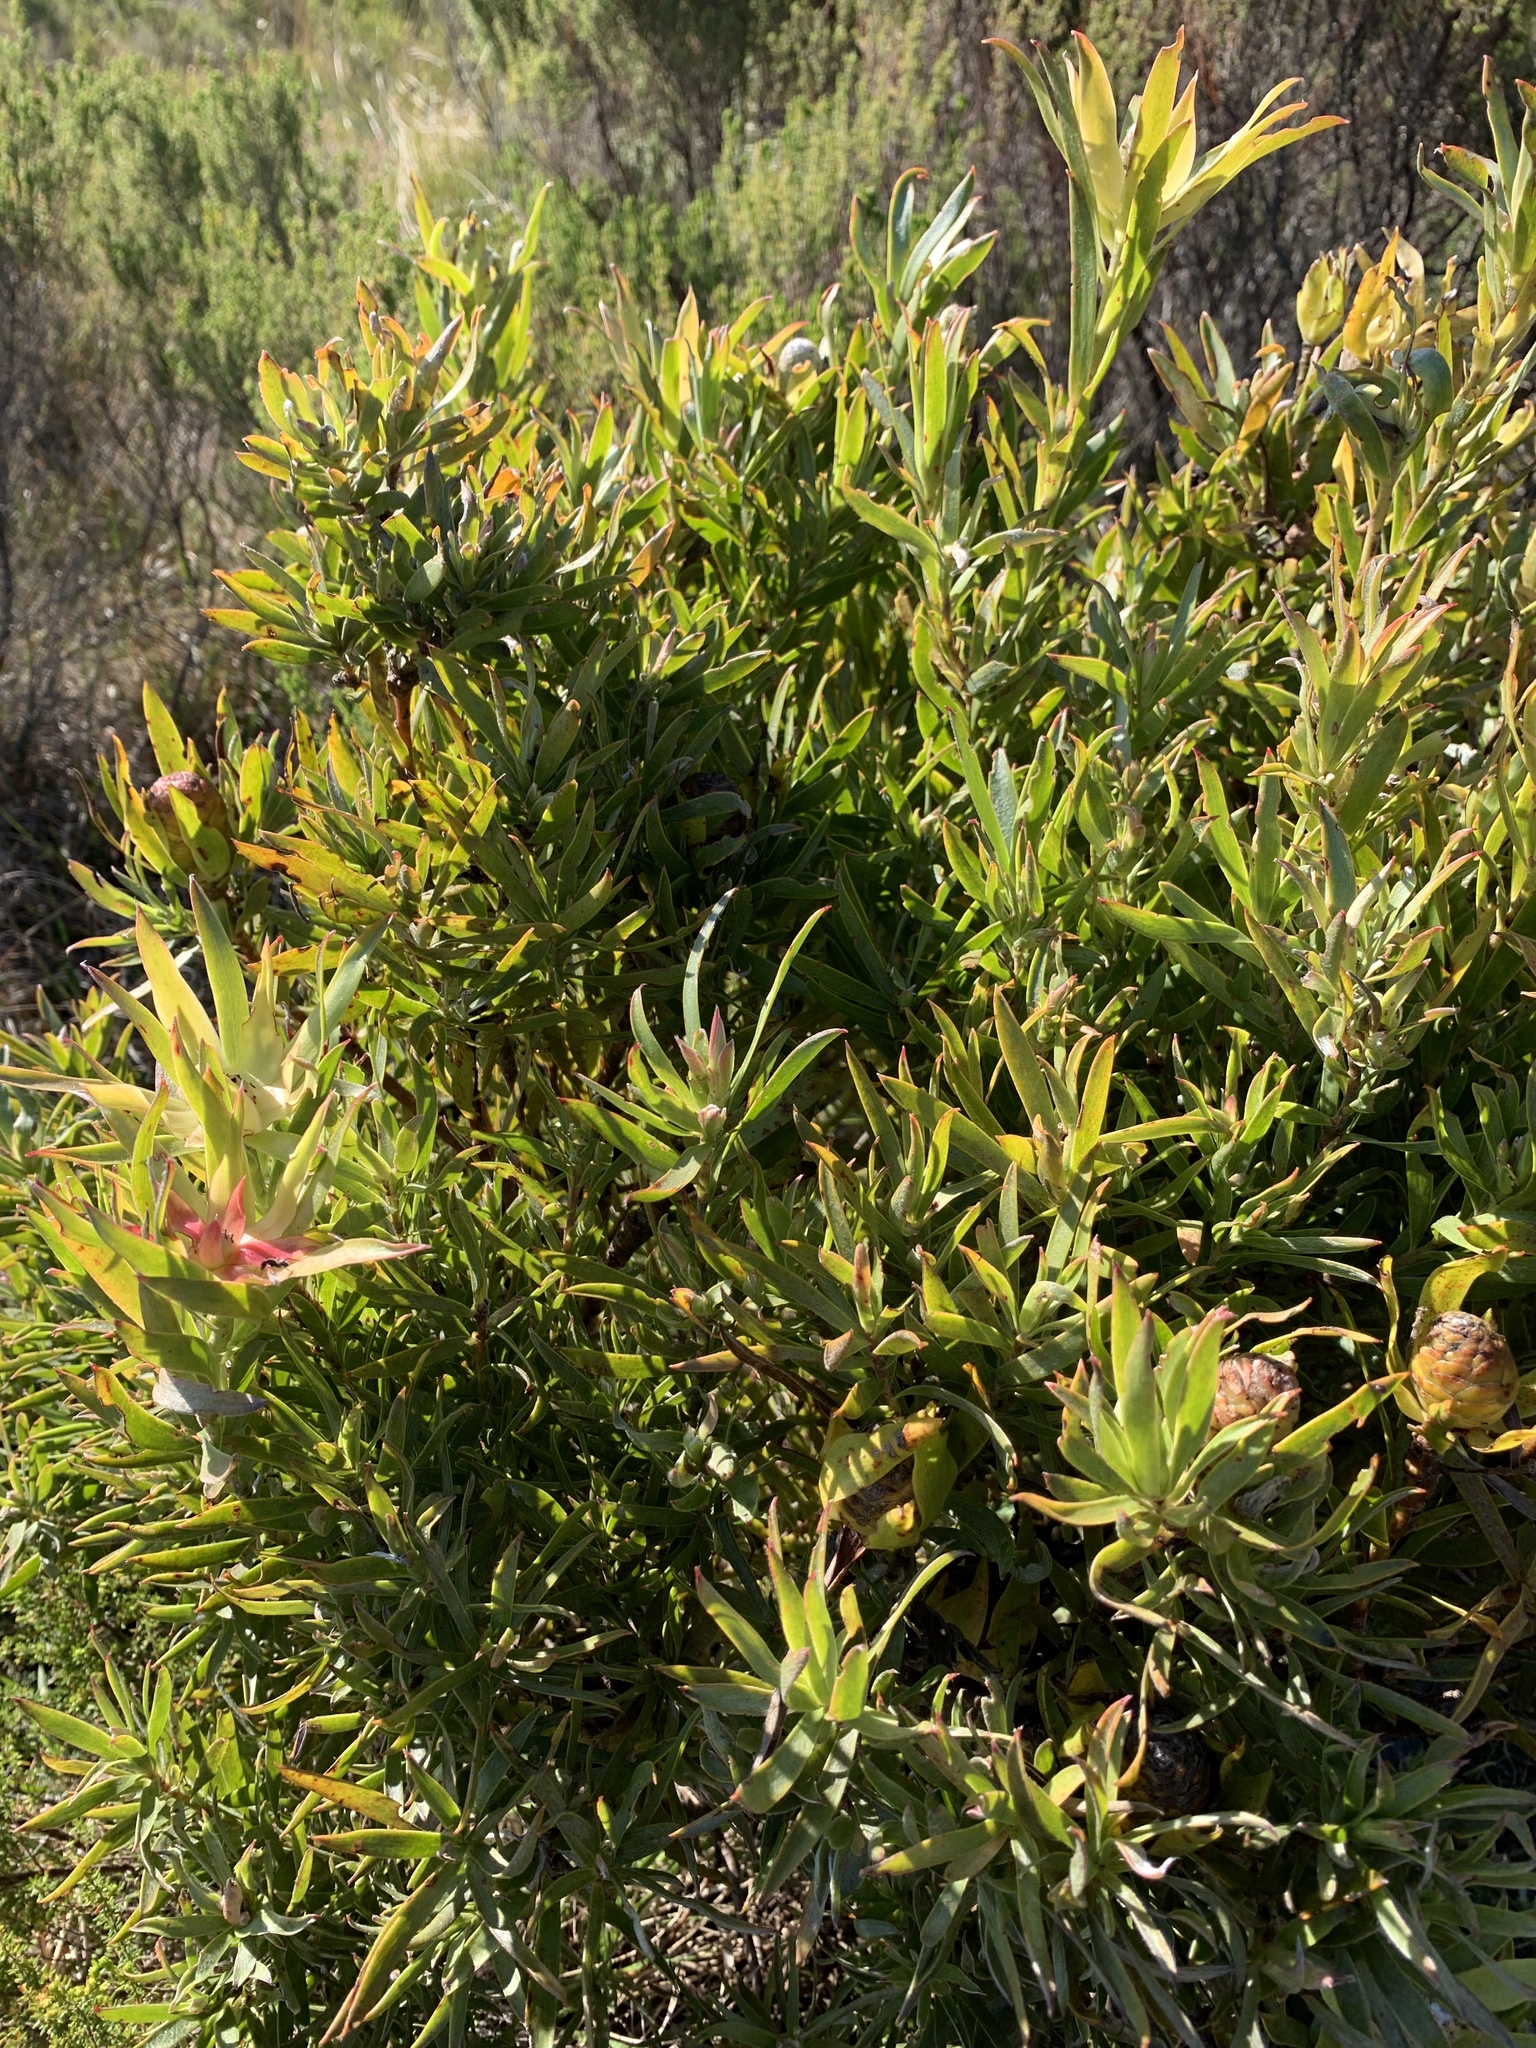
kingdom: Plantae
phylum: Tracheophyta
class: Magnoliopsida
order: Proteales
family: Proteaceae
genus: Leucadendron
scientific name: Leucadendron xanthoconus
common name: Sickle-leaf conebush
